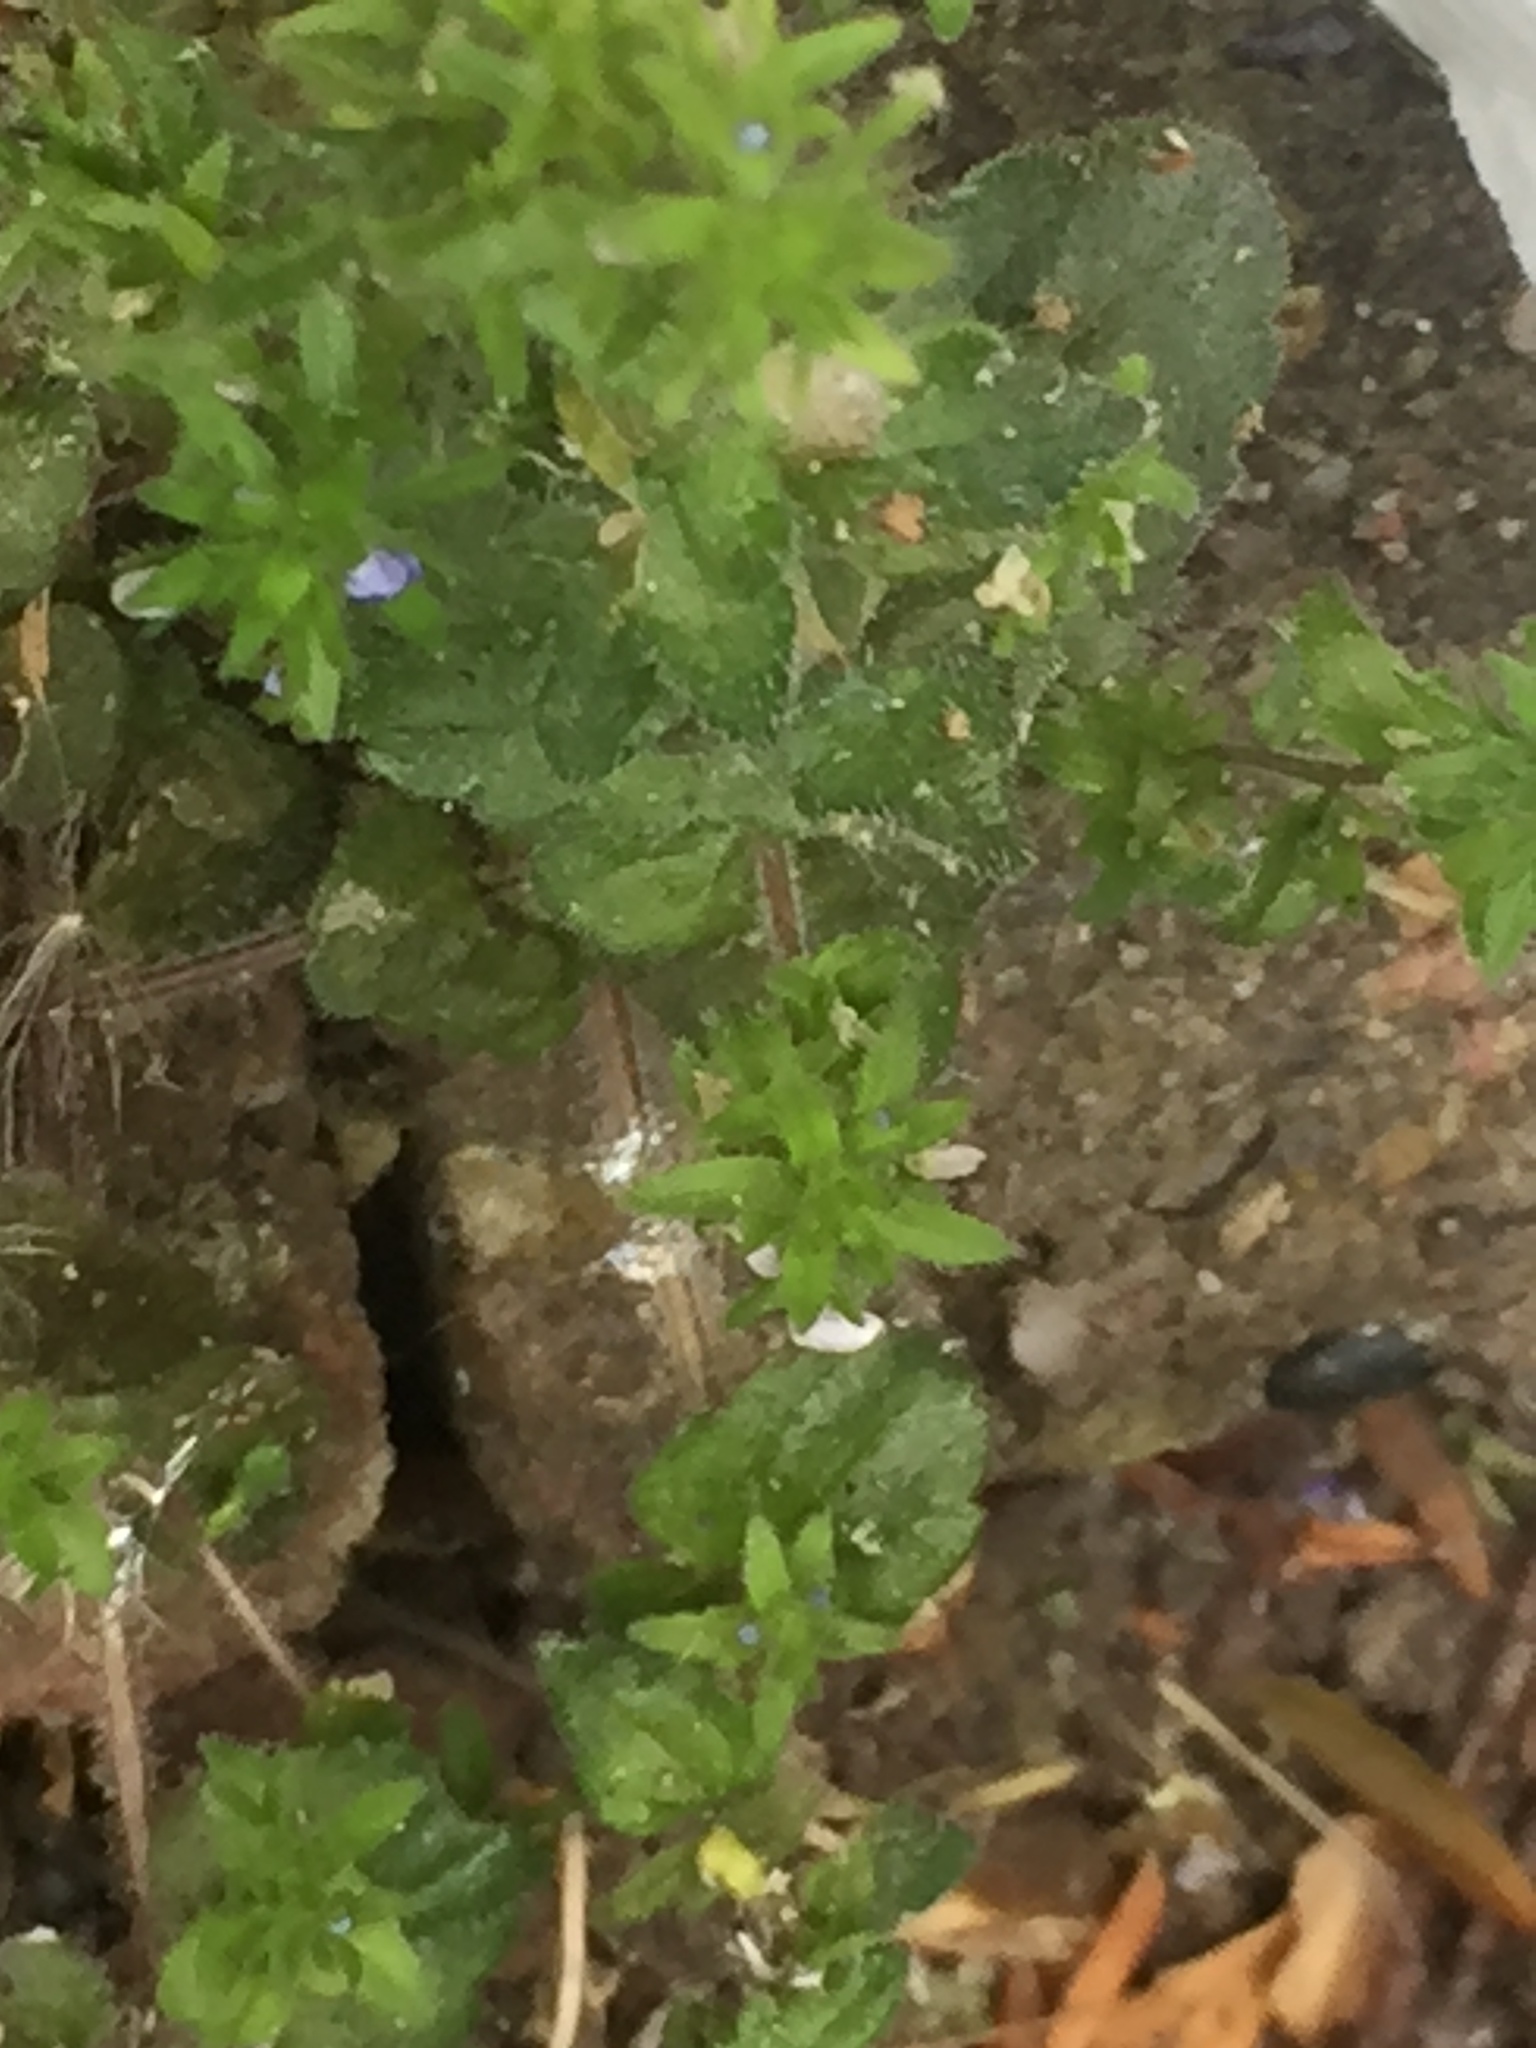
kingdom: Plantae
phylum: Tracheophyta
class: Magnoliopsida
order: Lamiales
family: Plantaginaceae
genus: Veronica
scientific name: Veronica arvensis
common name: Corn speedwell
